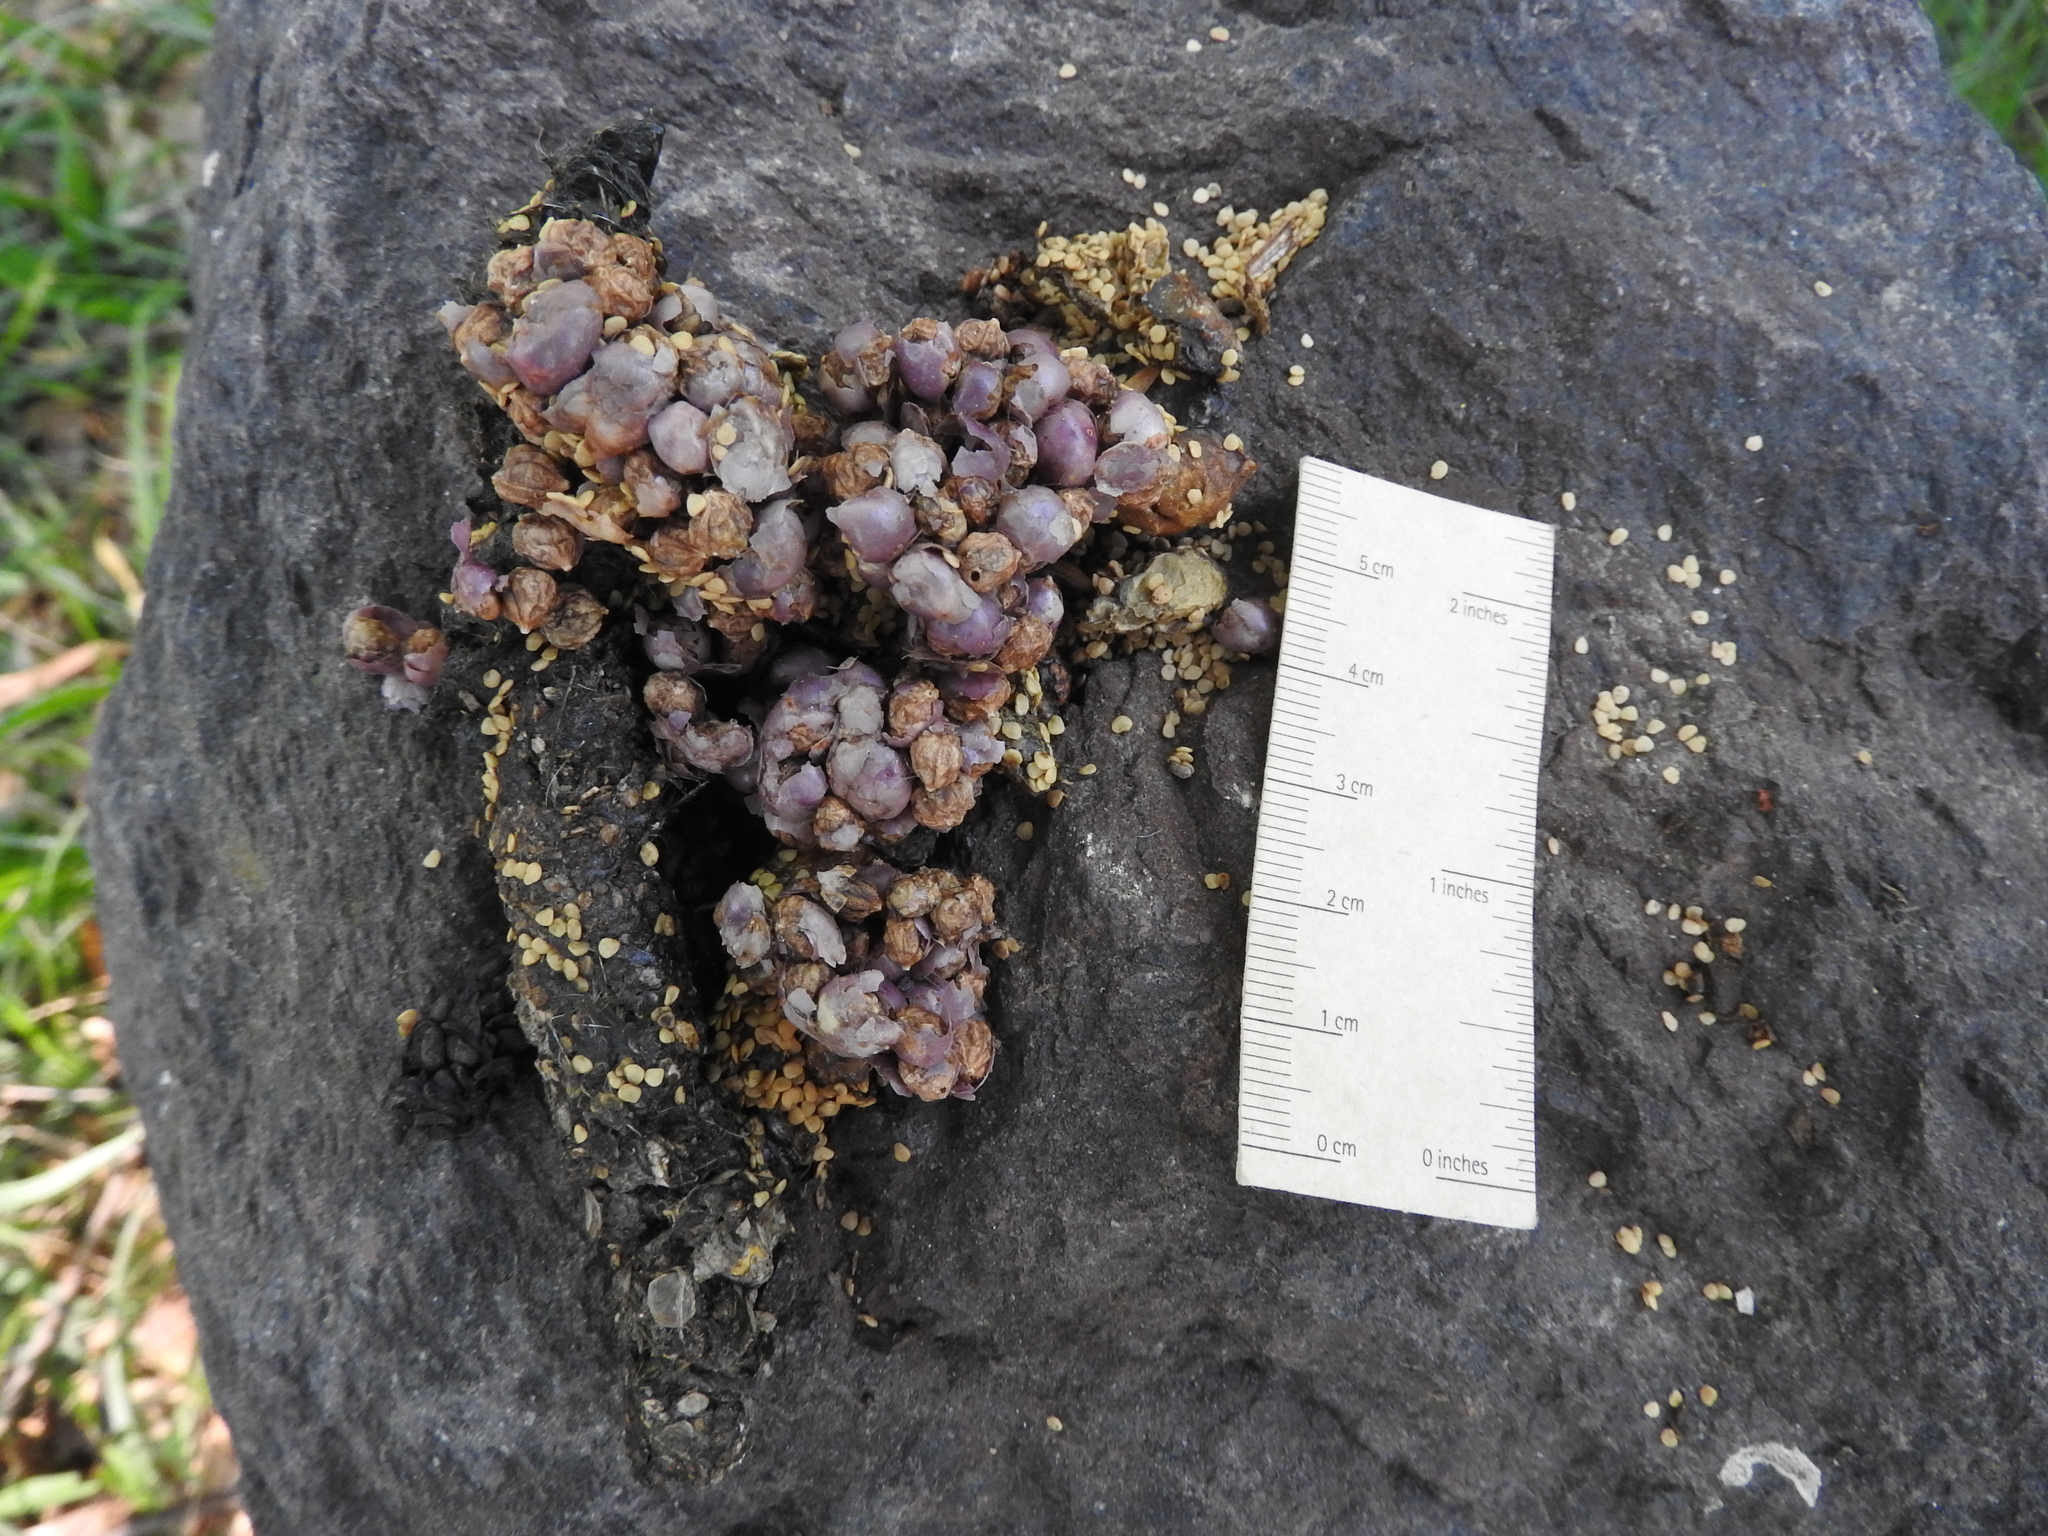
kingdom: Animalia
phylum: Chordata
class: Mammalia
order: Carnivora
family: Procyonidae
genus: Bassariscus
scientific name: Bassariscus astutus
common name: Ringtail
